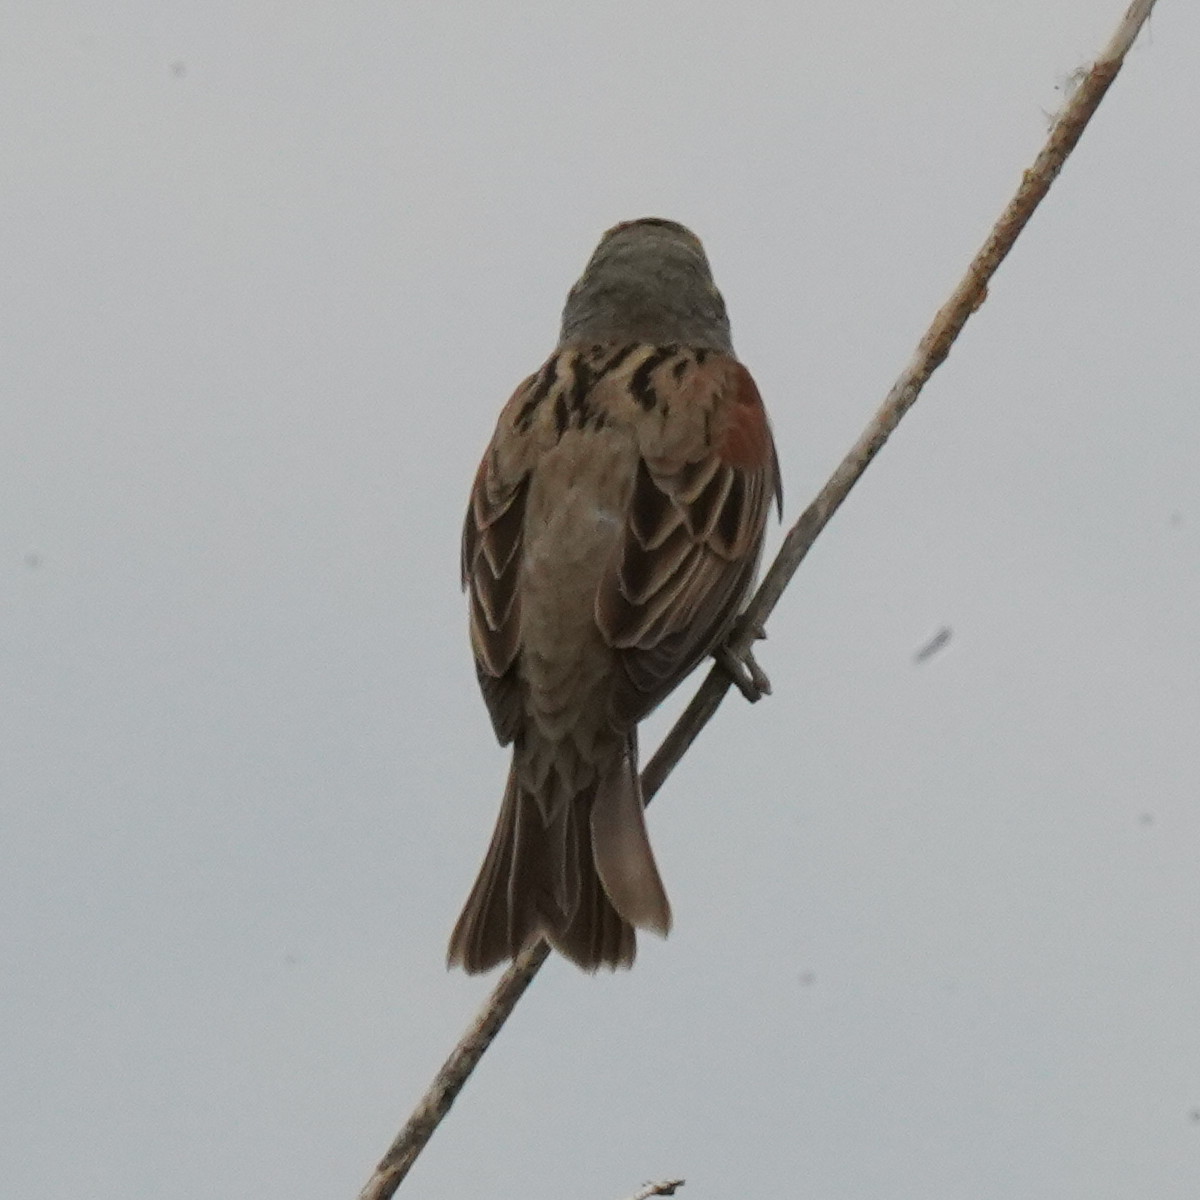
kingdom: Animalia
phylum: Chordata
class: Aves
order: Passeriformes
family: Cardinalidae
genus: Spiza
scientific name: Spiza americana
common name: Dickcissel
